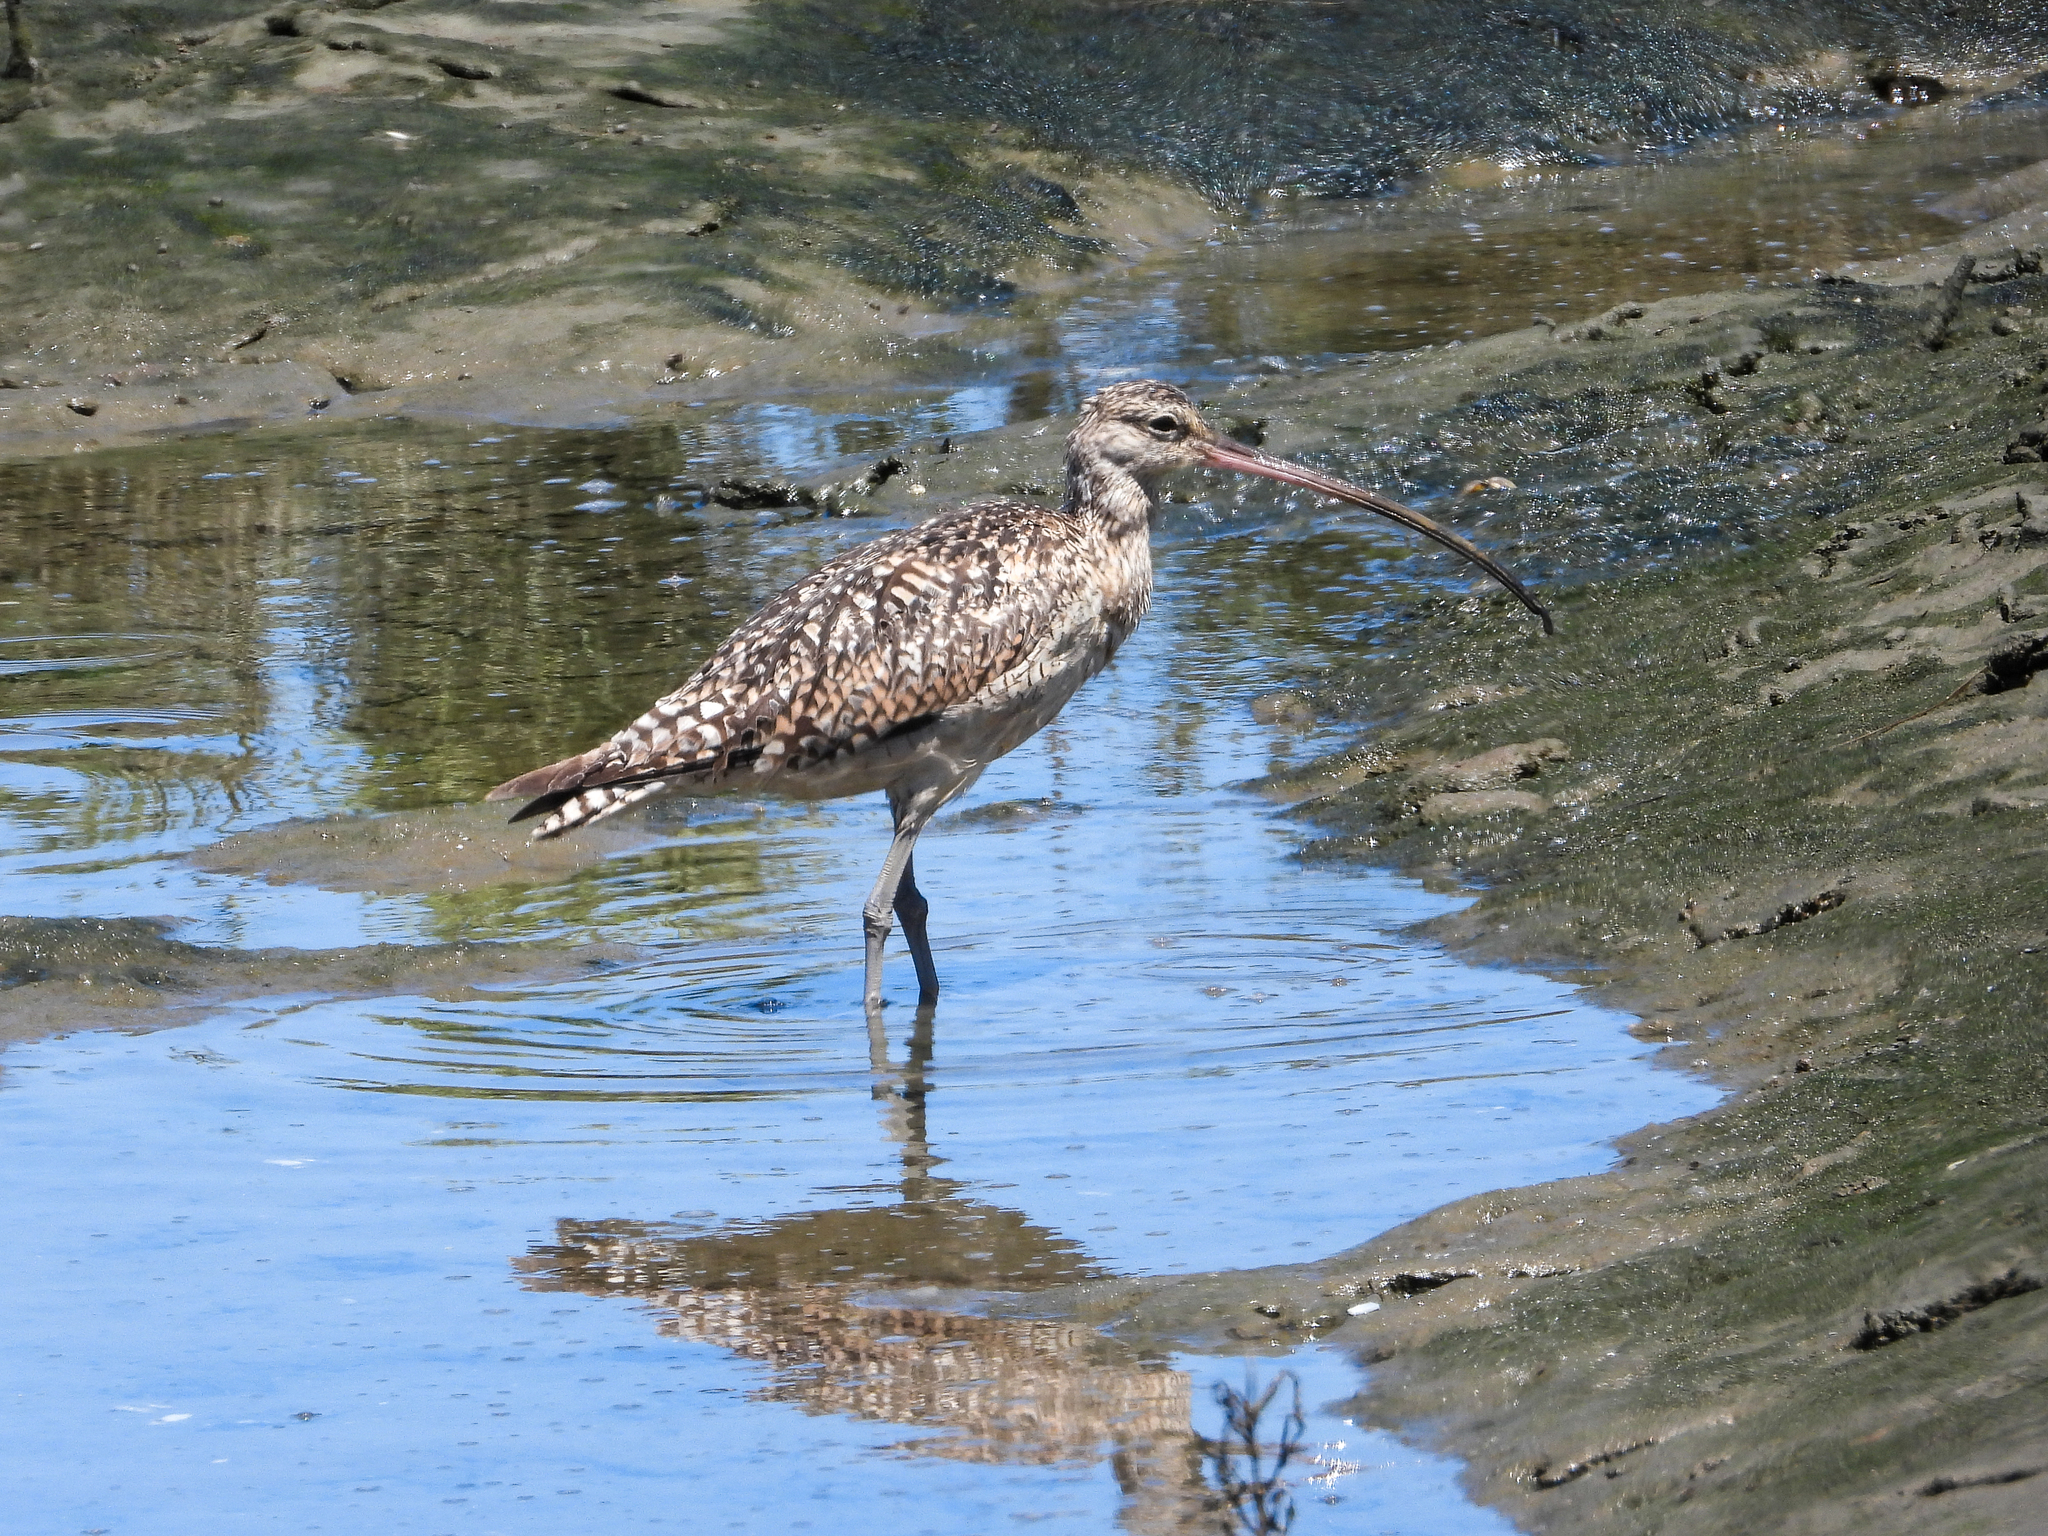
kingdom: Animalia
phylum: Chordata
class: Aves
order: Charadriiformes
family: Scolopacidae
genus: Numenius
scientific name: Numenius americanus
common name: Long-billed curlew
